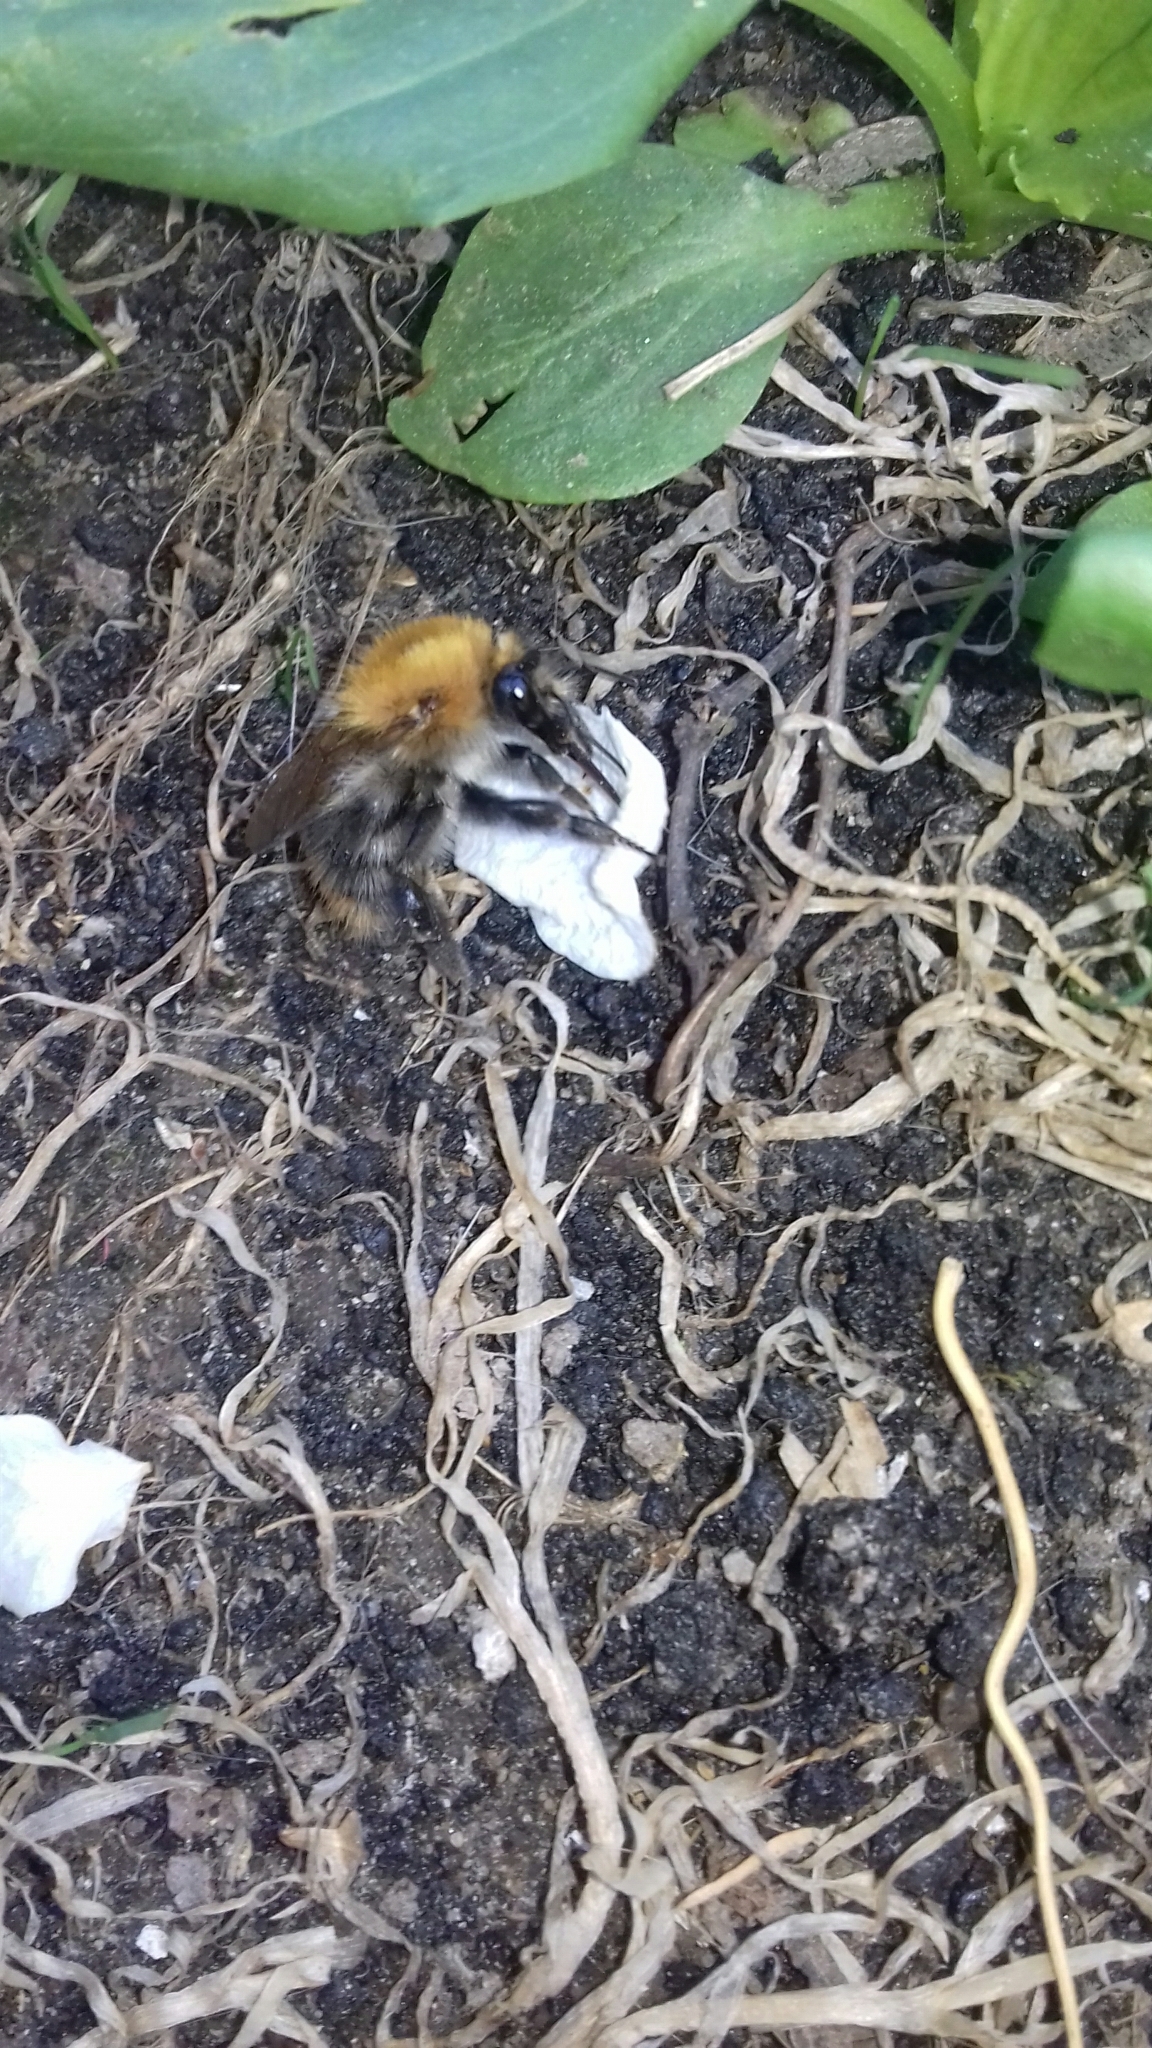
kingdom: Animalia
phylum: Arthropoda
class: Insecta
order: Hymenoptera
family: Apidae
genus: Bombus
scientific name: Bombus pascuorum
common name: Common carder bee
